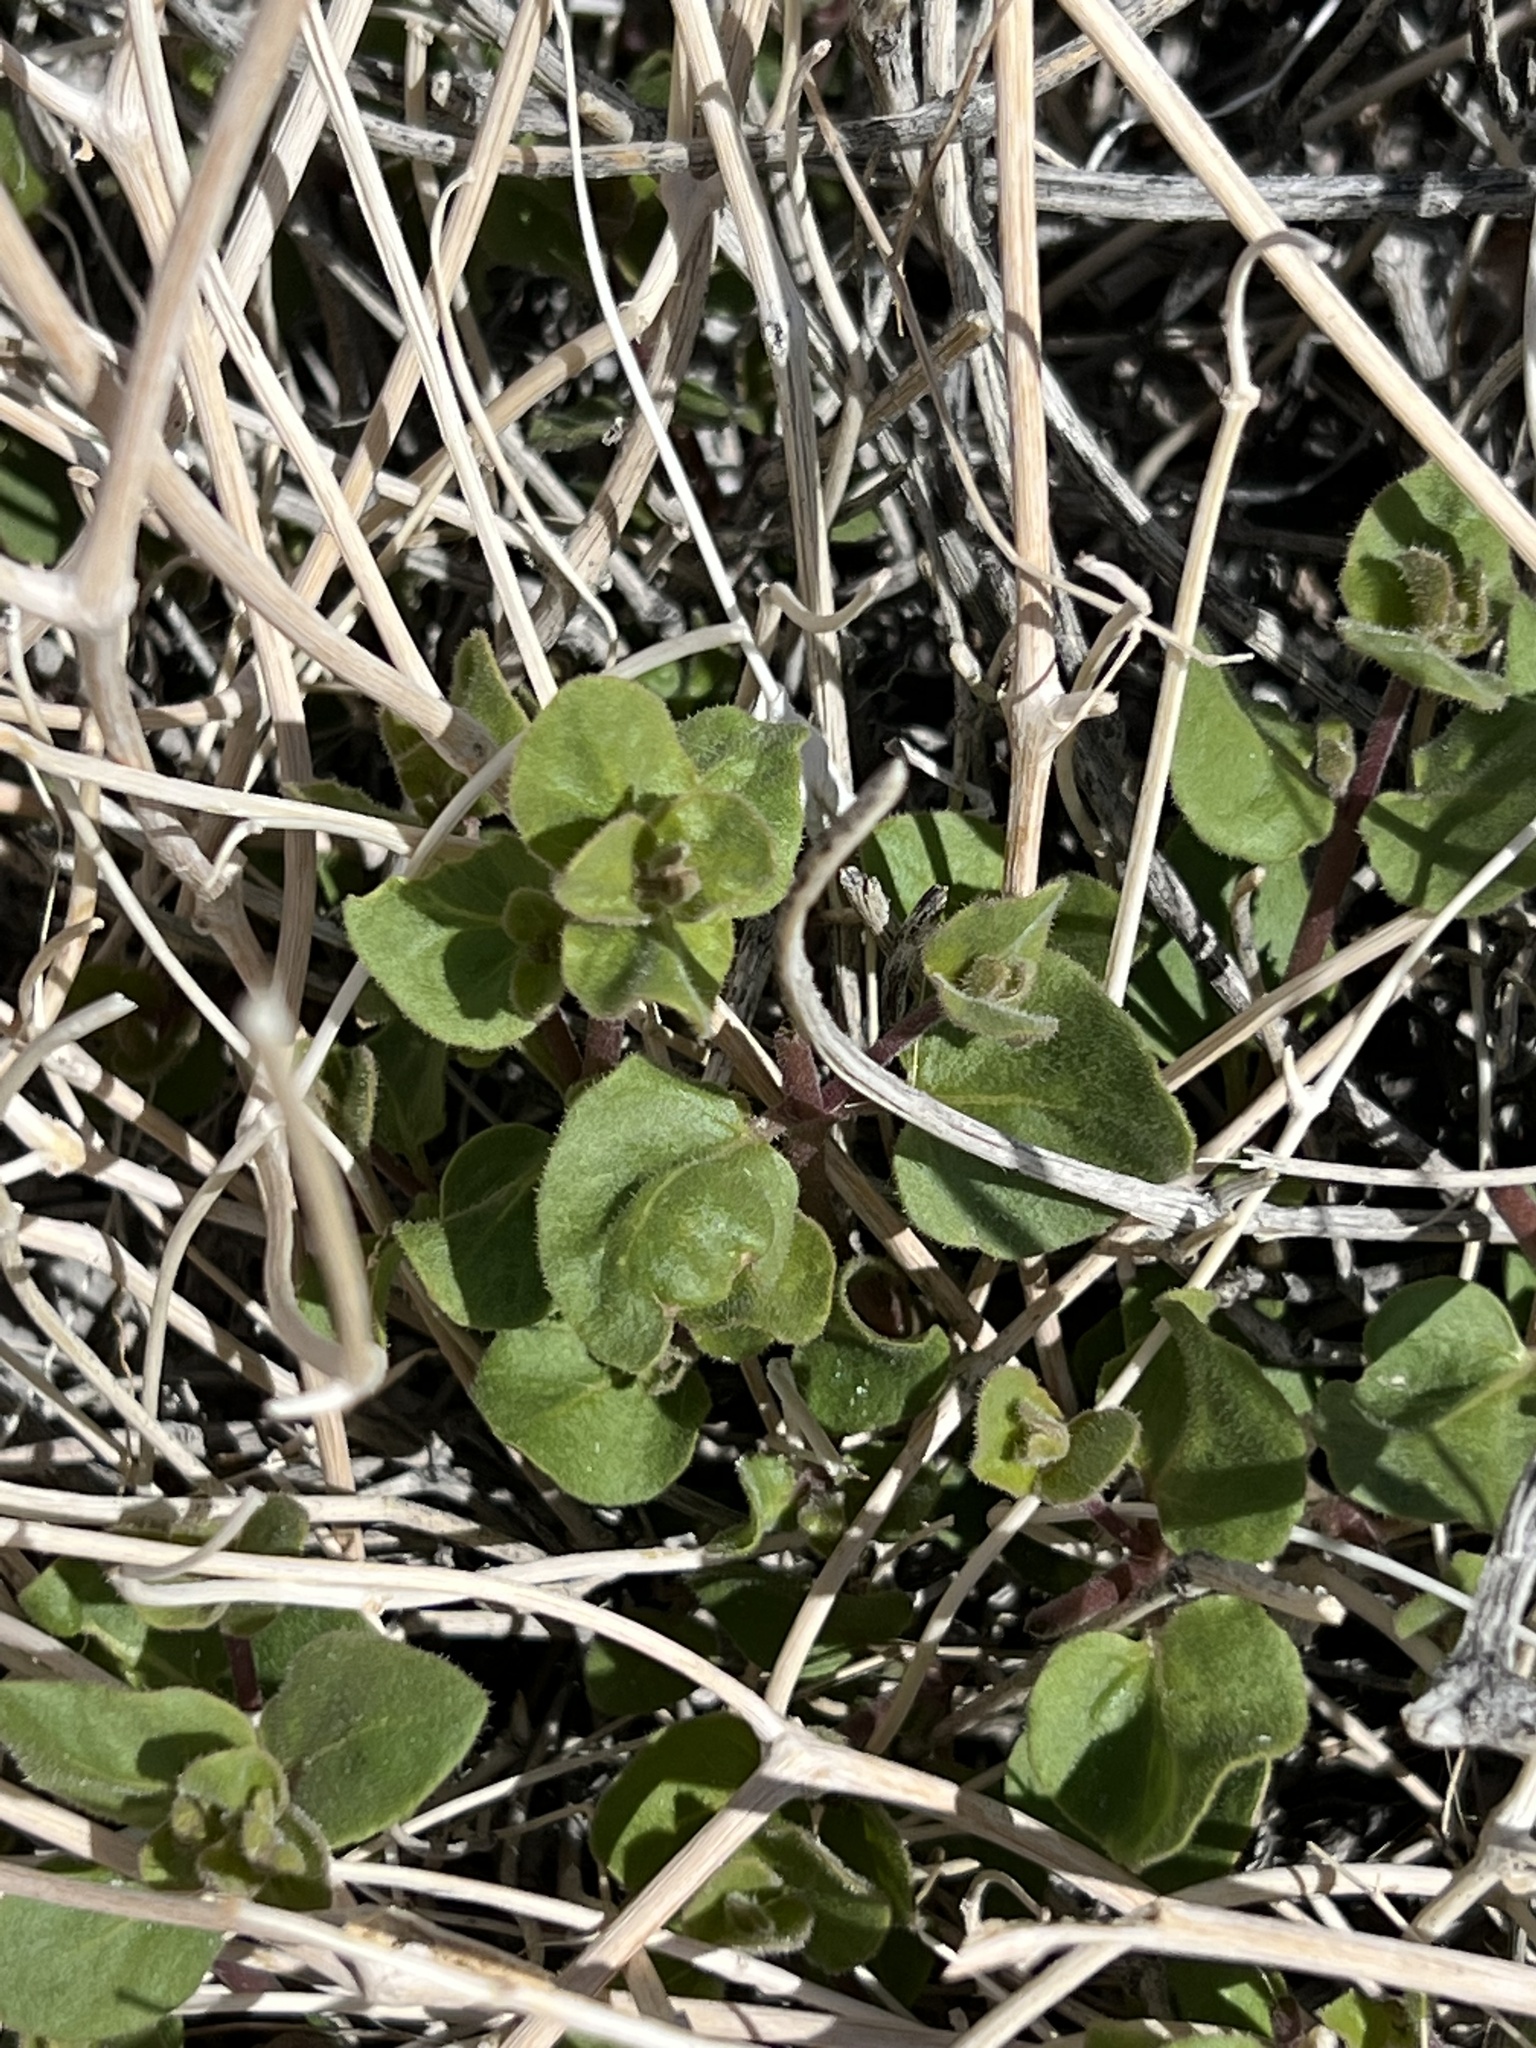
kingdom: Plantae
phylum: Tracheophyta
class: Magnoliopsida
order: Caryophyllales
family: Nyctaginaceae
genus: Mirabilis
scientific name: Mirabilis laevis
